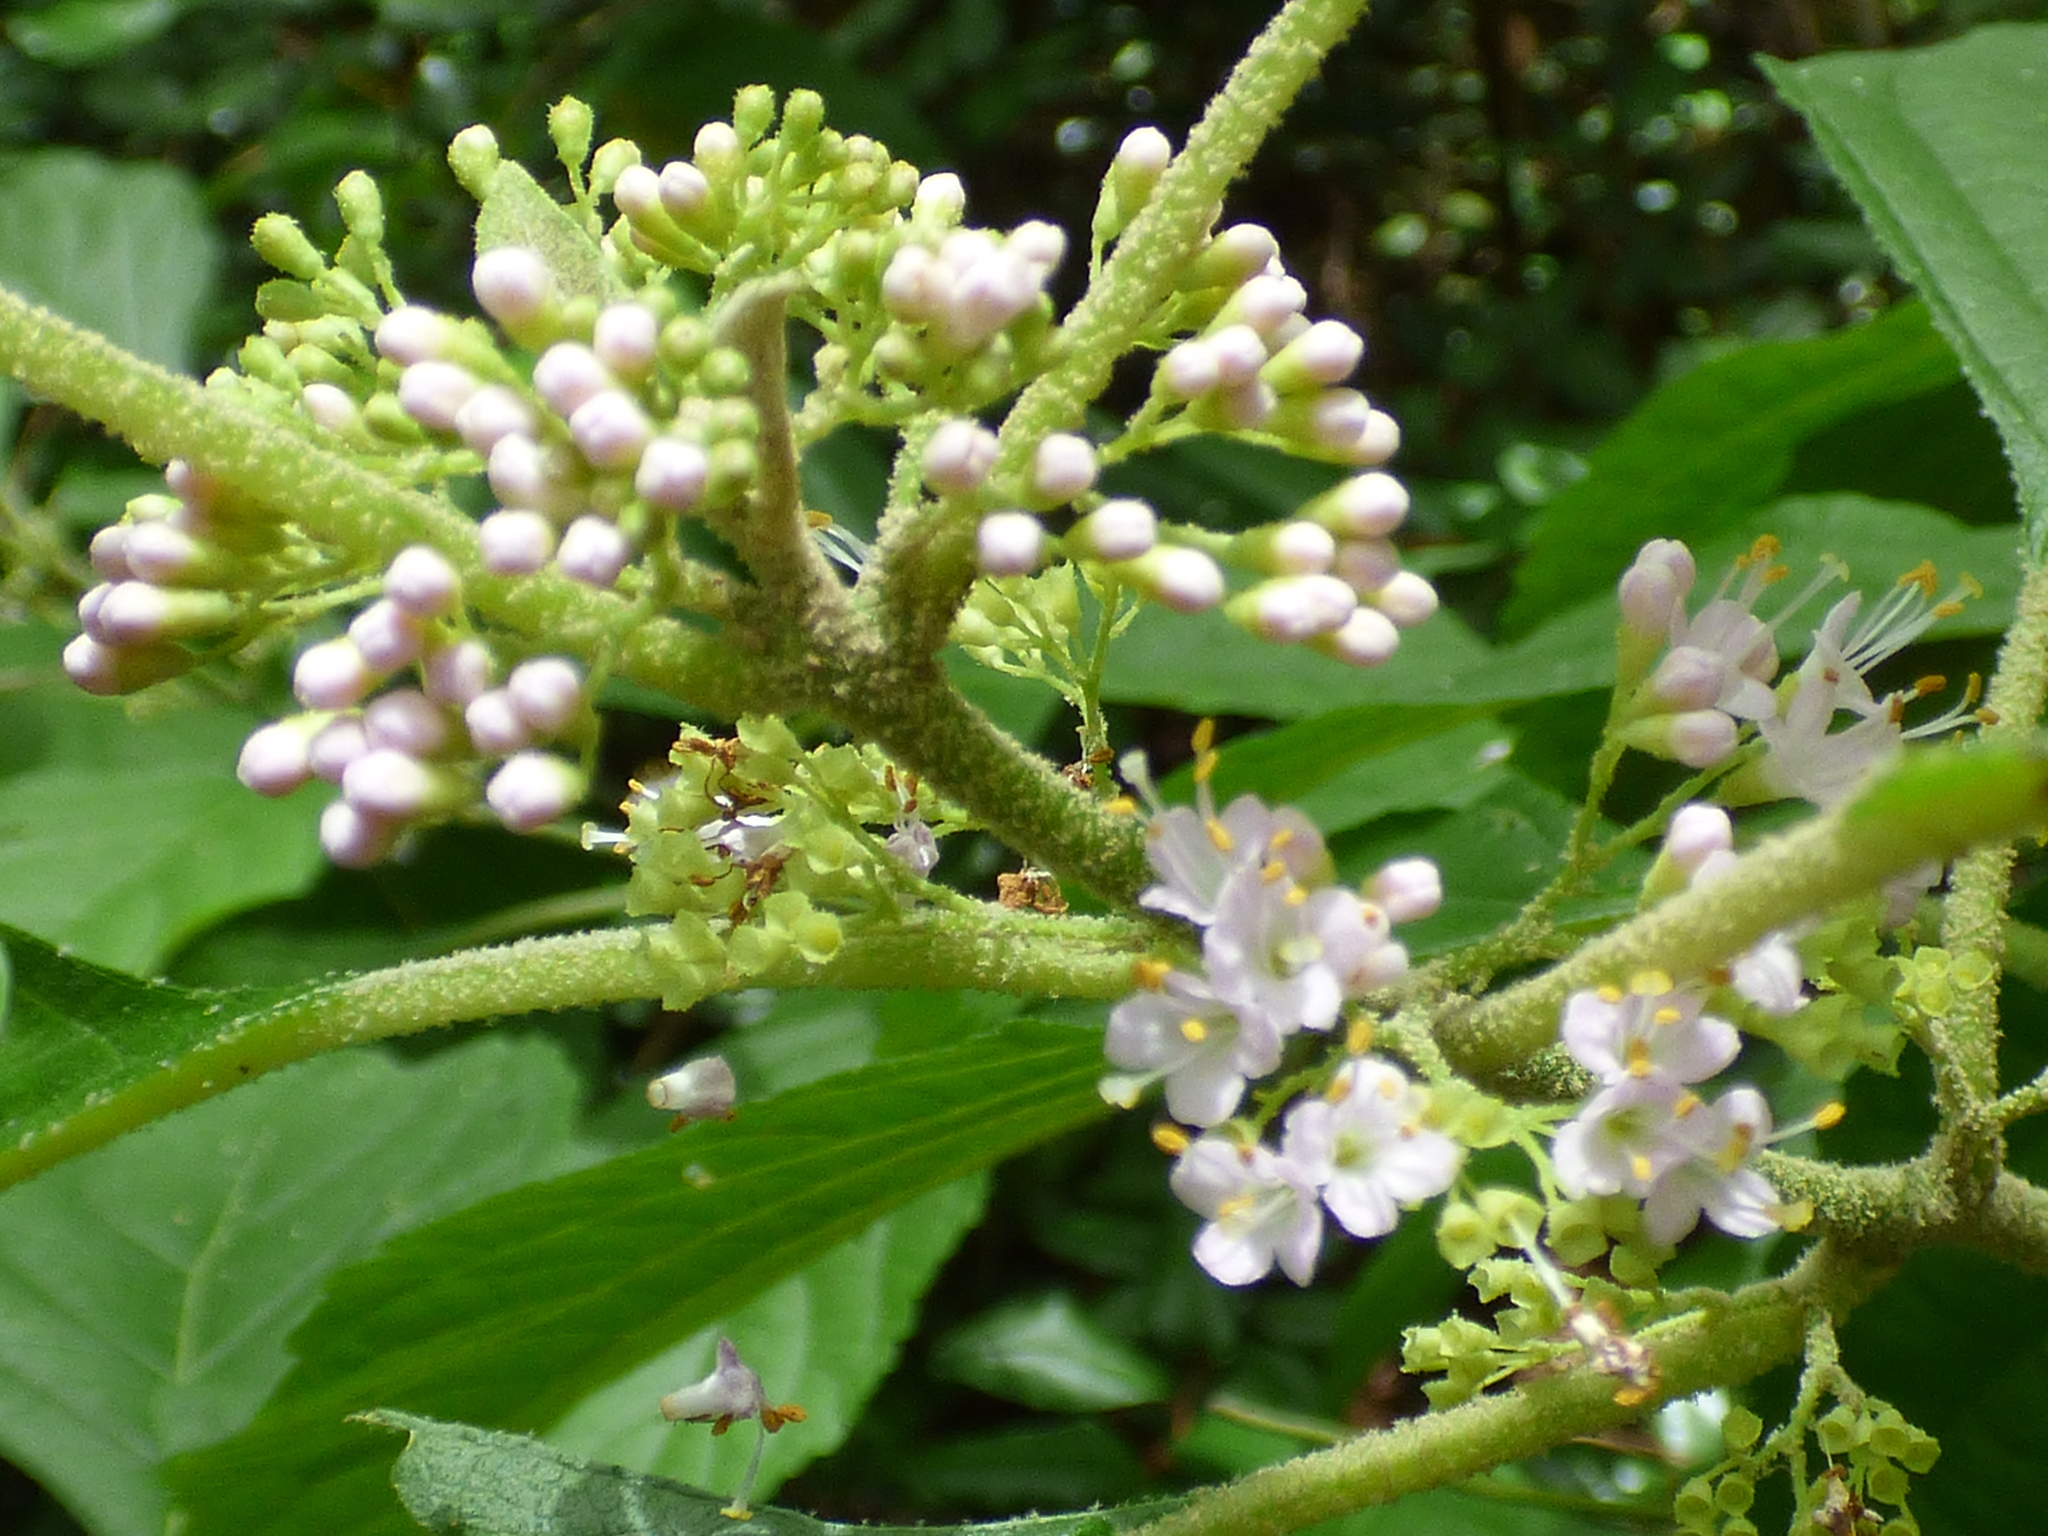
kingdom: Plantae
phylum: Tracheophyta
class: Magnoliopsida
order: Lamiales
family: Lamiaceae
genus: Callicarpa
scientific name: Callicarpa americana
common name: American beautyberry
